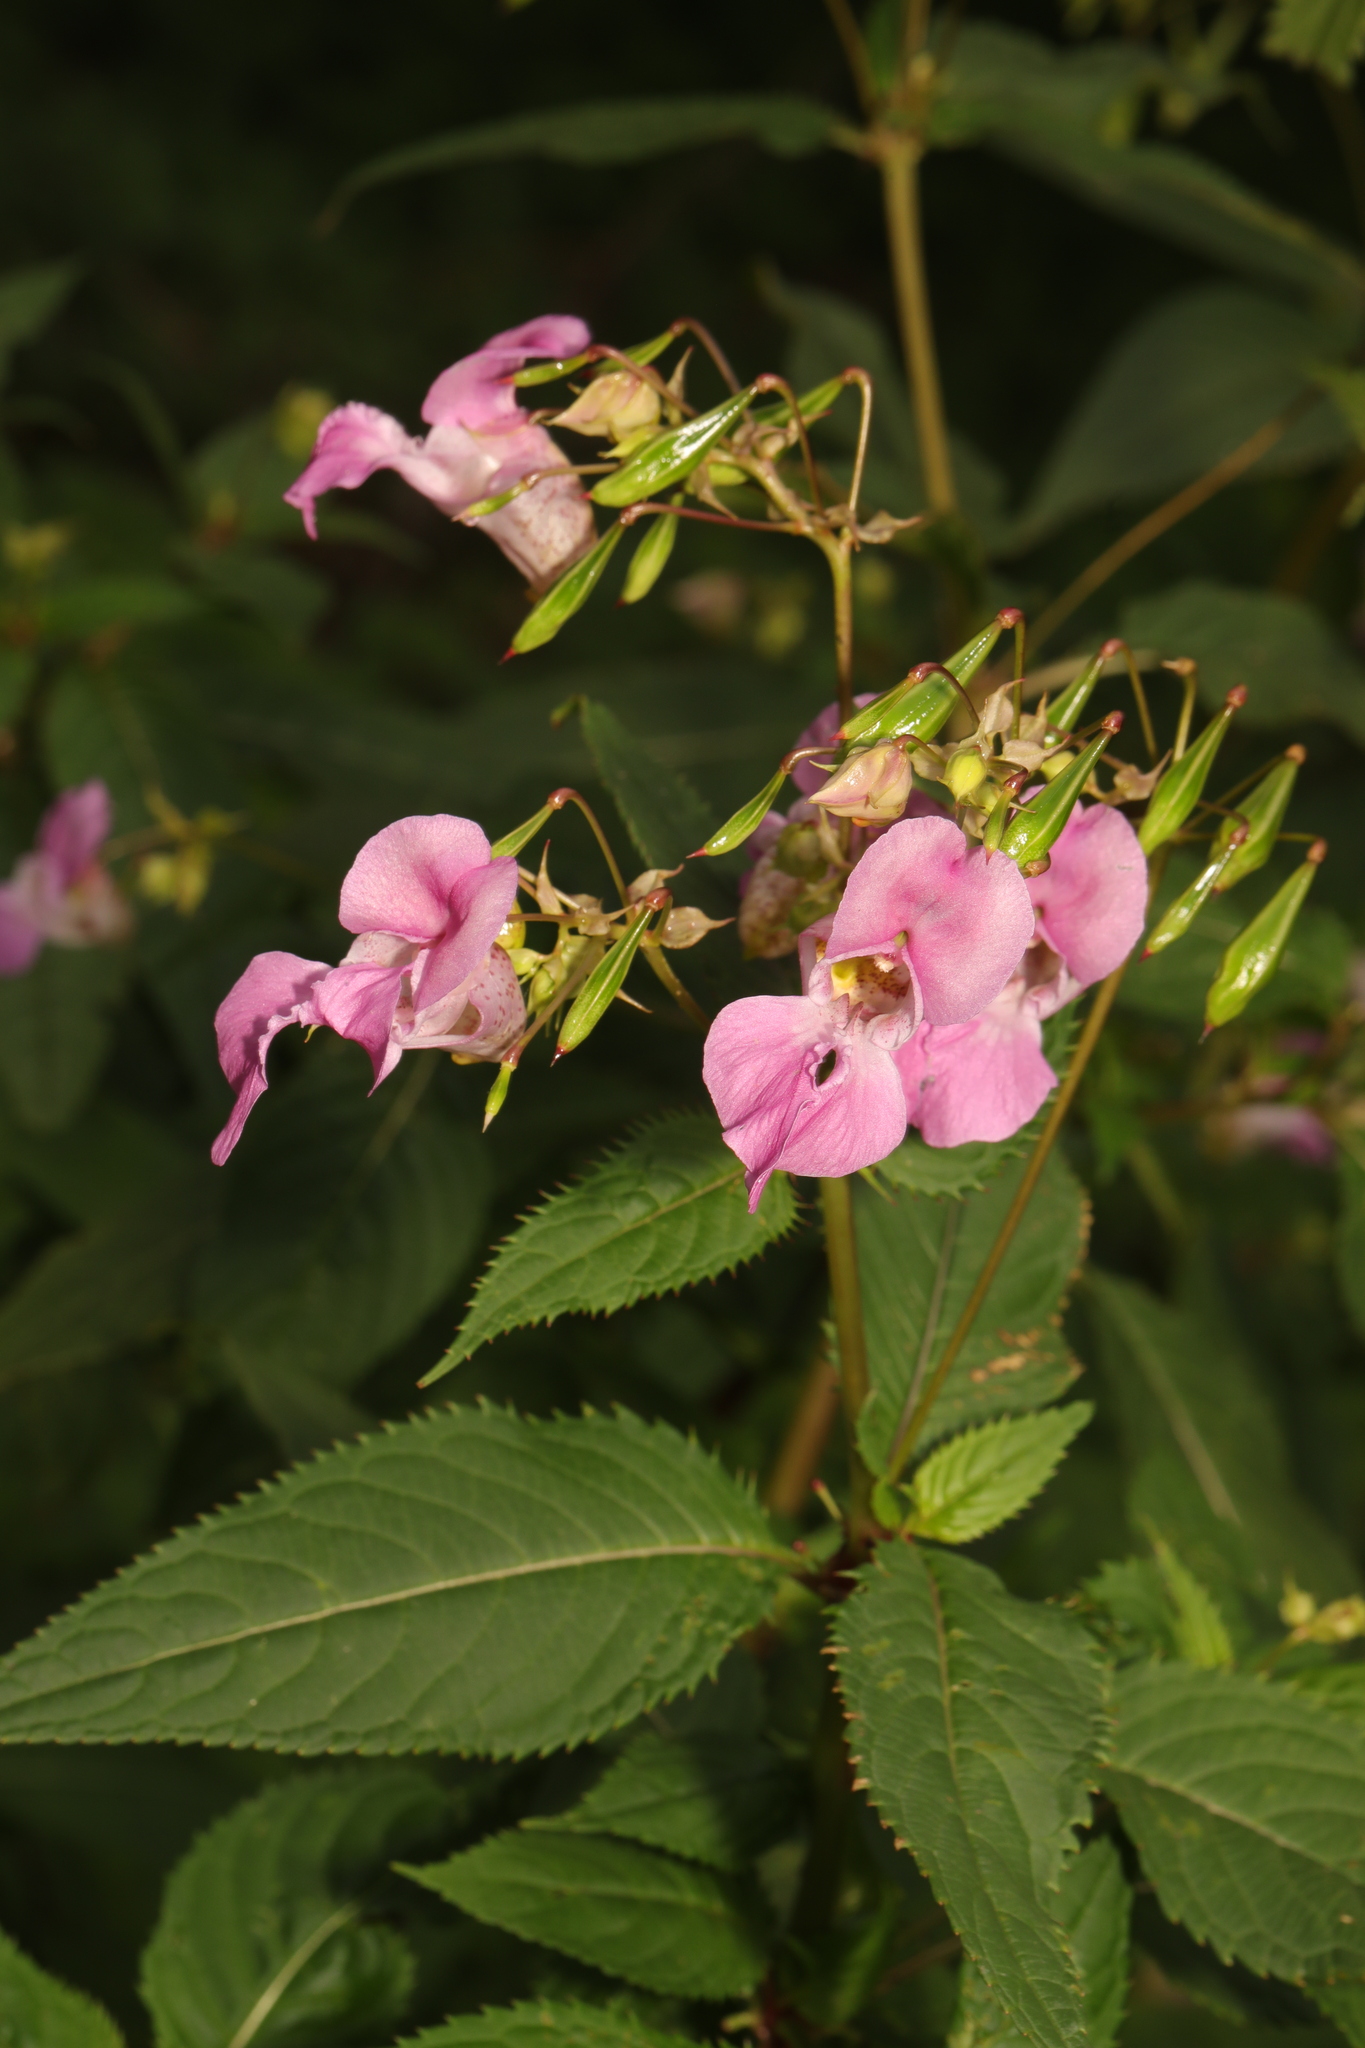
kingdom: Plantae
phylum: Tracheophyta
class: Magnoliopsida
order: Ericales
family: Balsaminaceae
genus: Impatiens
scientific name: Impatiens glandulifera
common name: Himalayan balsam
